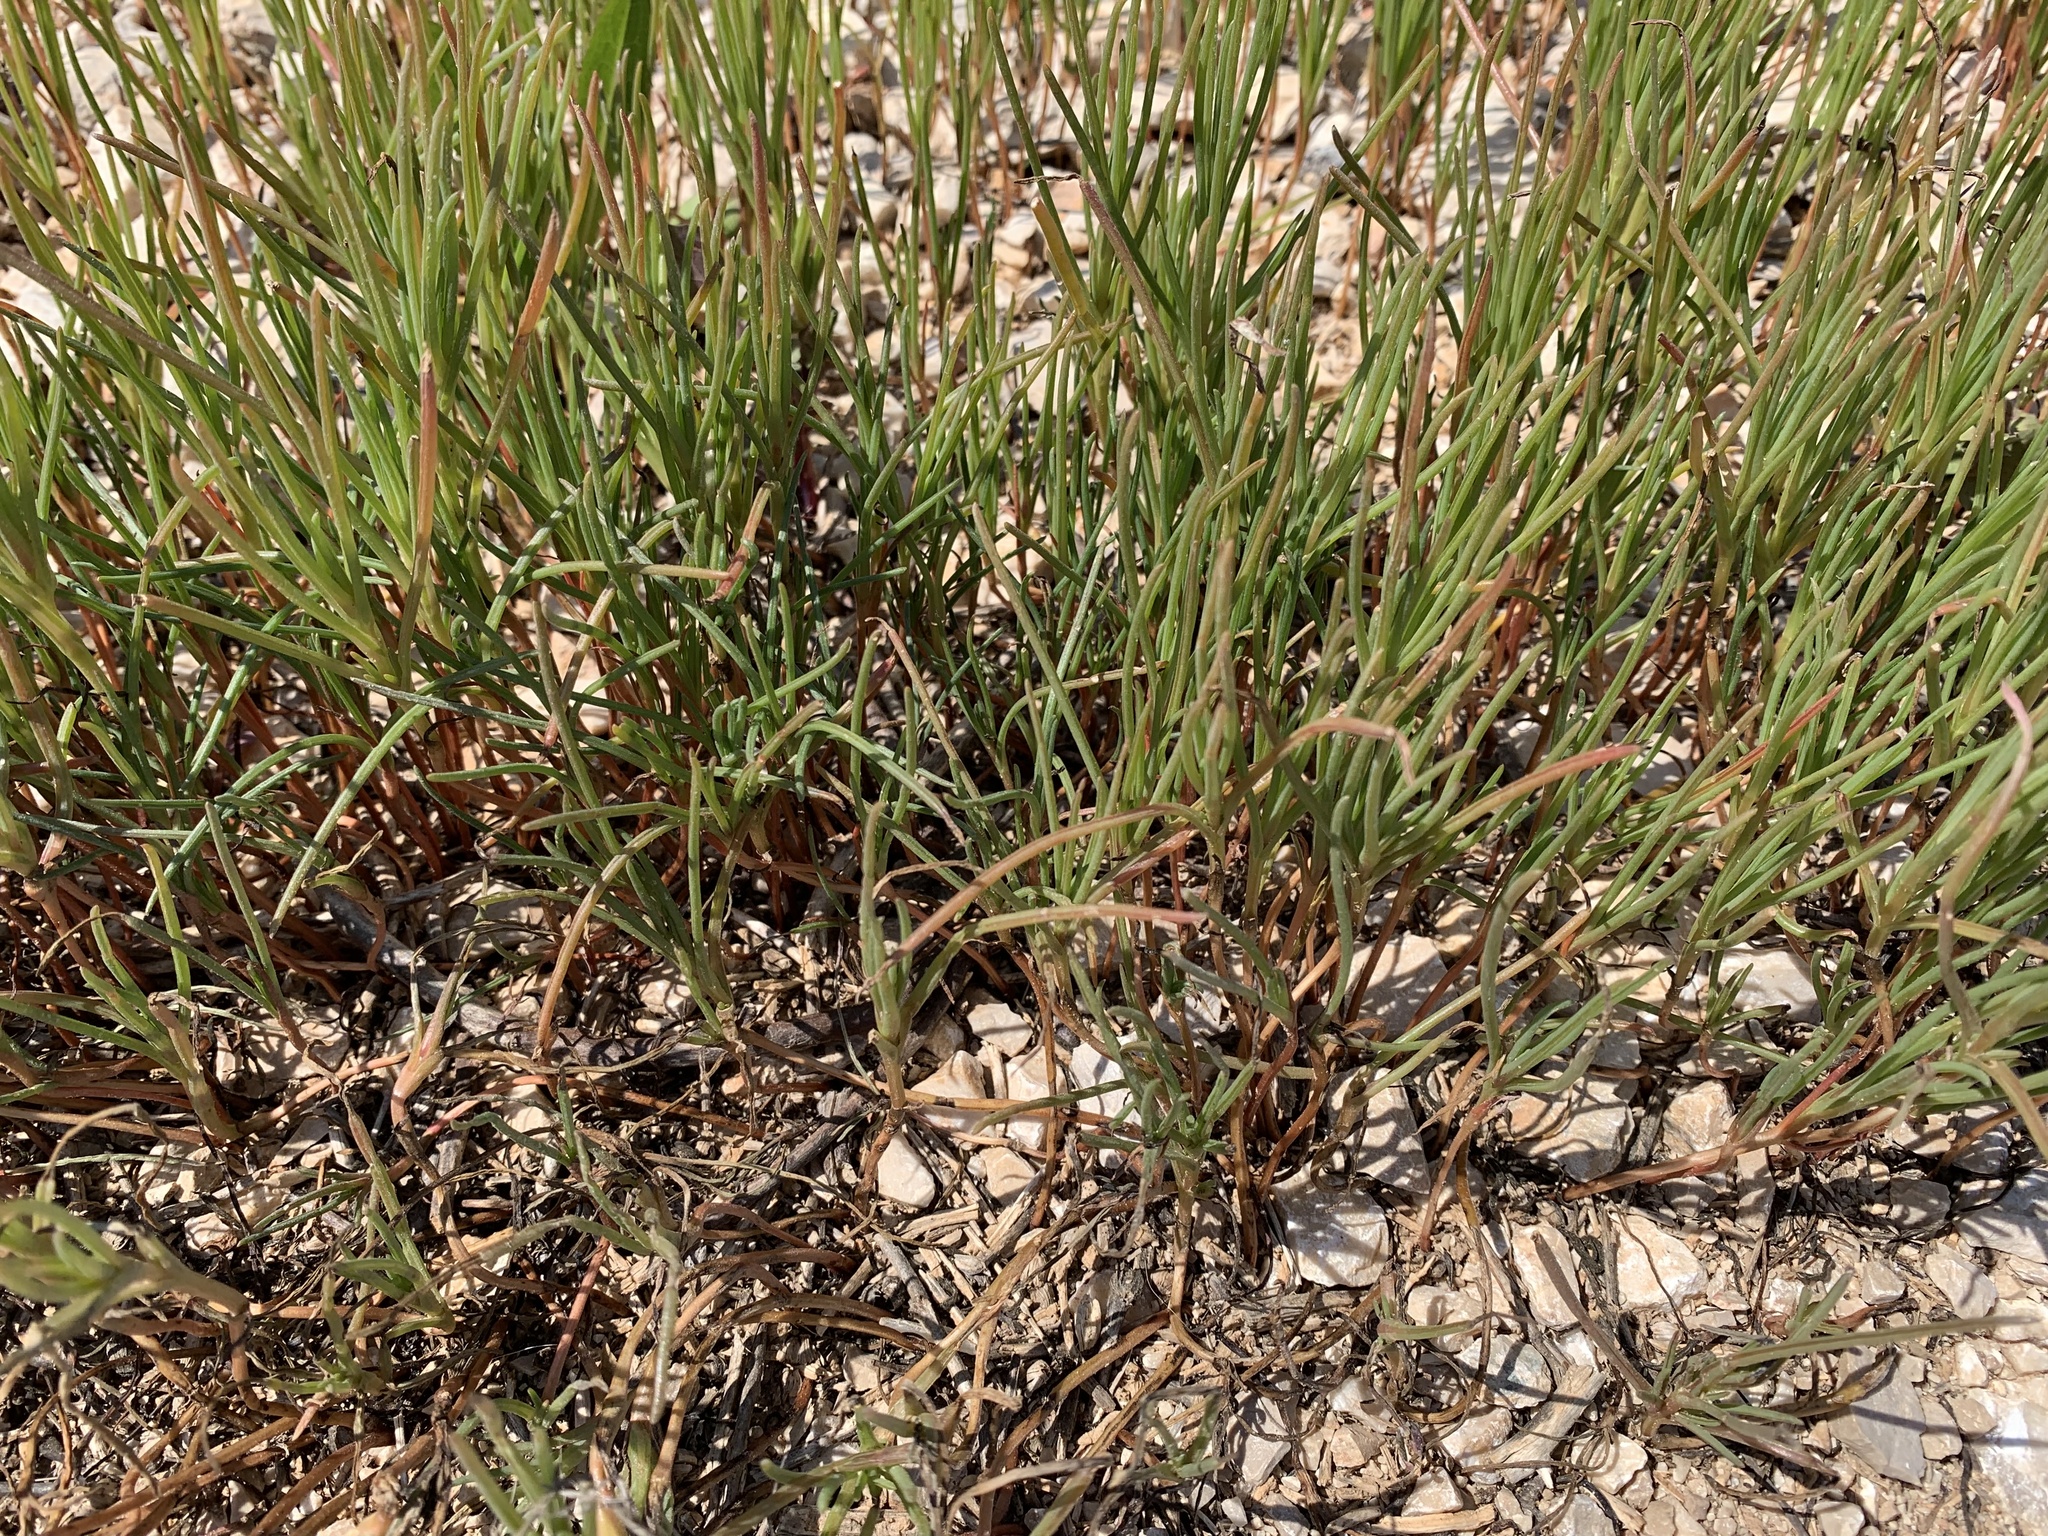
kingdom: Plantae
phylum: Tracheophyta
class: Magnoliopsida
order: Caryophyllales
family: Amaranthaceae
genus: Salsola
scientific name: Salsola soda
